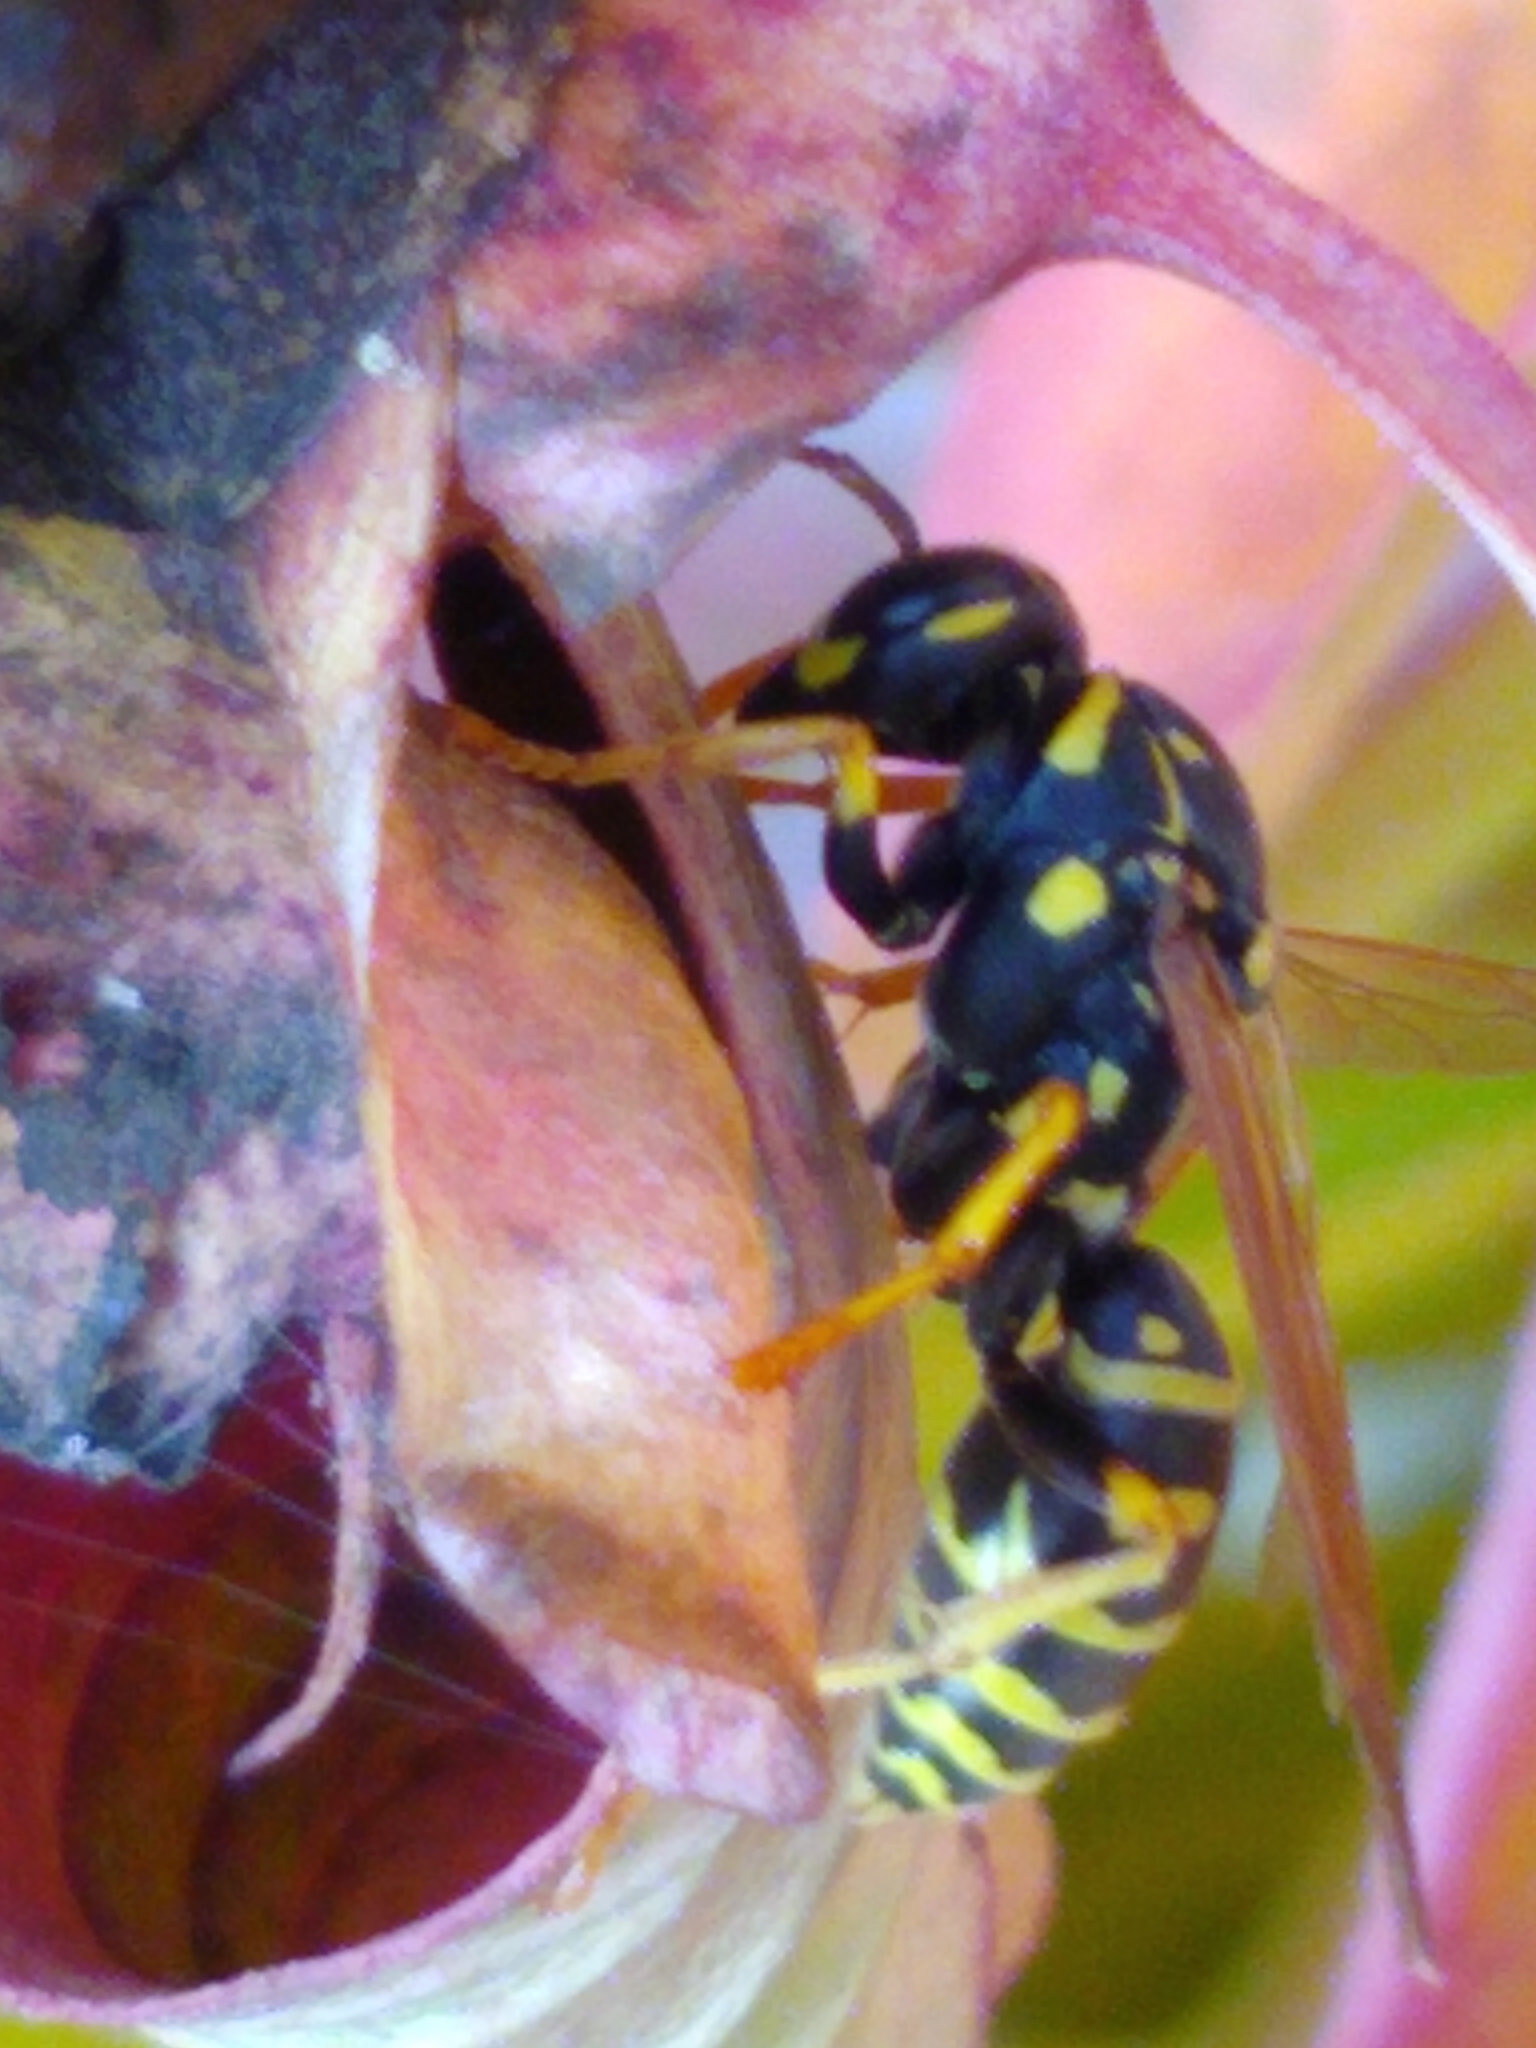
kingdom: Animalia
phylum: Arthropoda
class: Insecta
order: Hymenoptera
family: Eumenidae
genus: Polistes
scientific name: Polistes dominula
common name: Paper wasp
